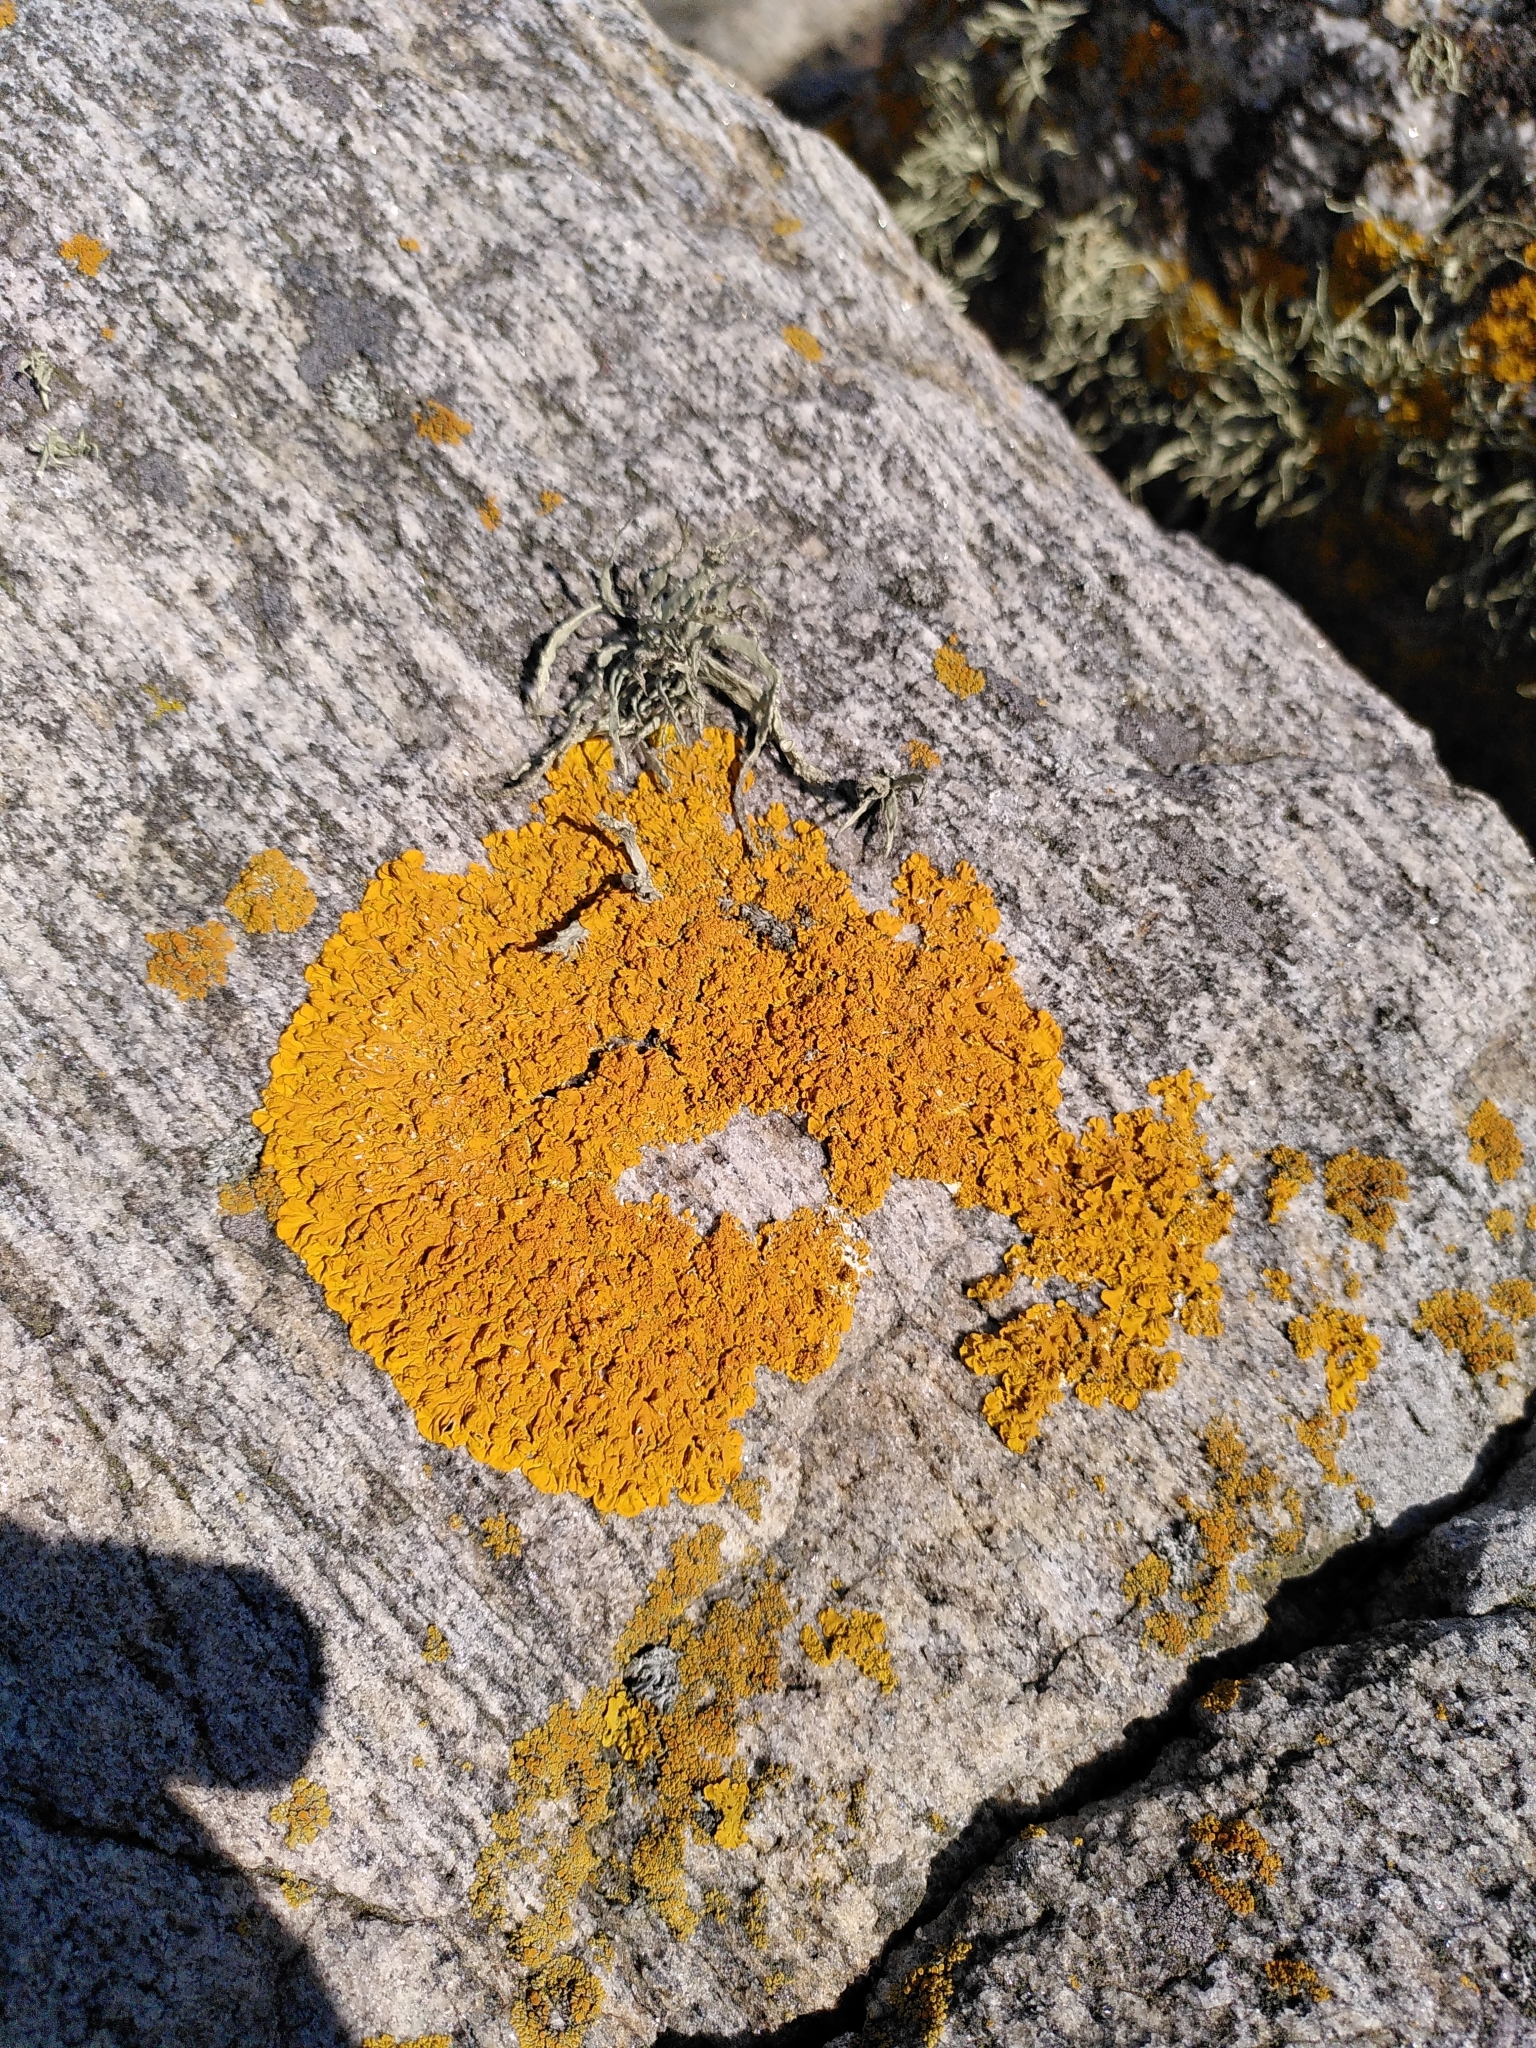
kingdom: Fungi
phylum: Ascomycota
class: Lecanoromycetes
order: Teloschistales
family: Teloschistaceae
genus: Xanthoria
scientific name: Xanthoria parietina
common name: Common orange lichen
